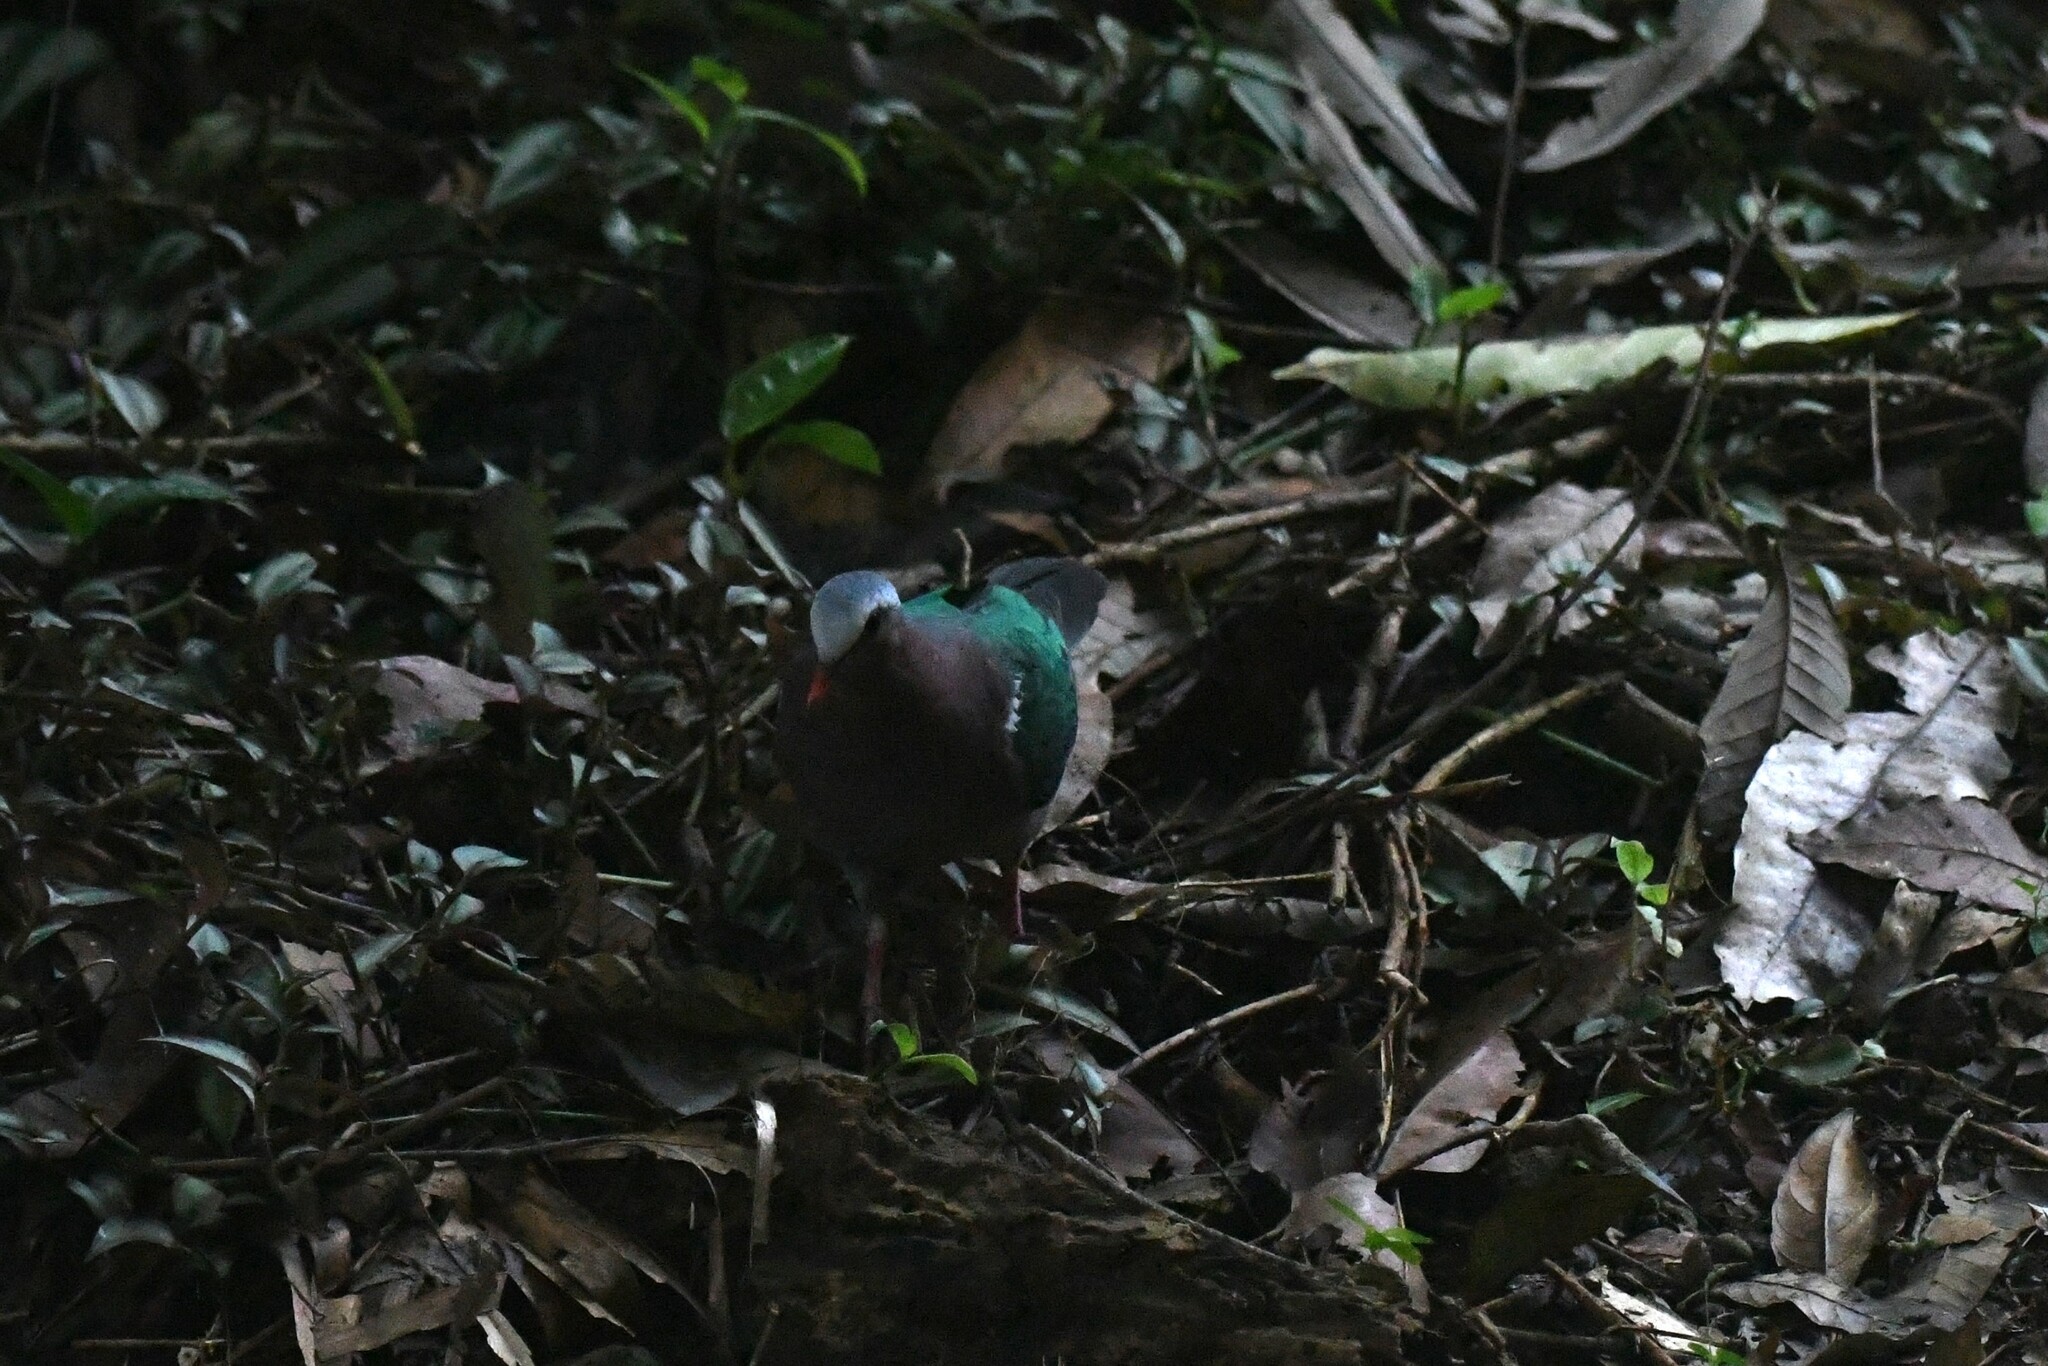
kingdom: Animalia
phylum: Chordata
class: Aves
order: Columbiformes
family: Columbidae
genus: Chalcophaps
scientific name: Chalcophaps indica
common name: Common emerald dove
